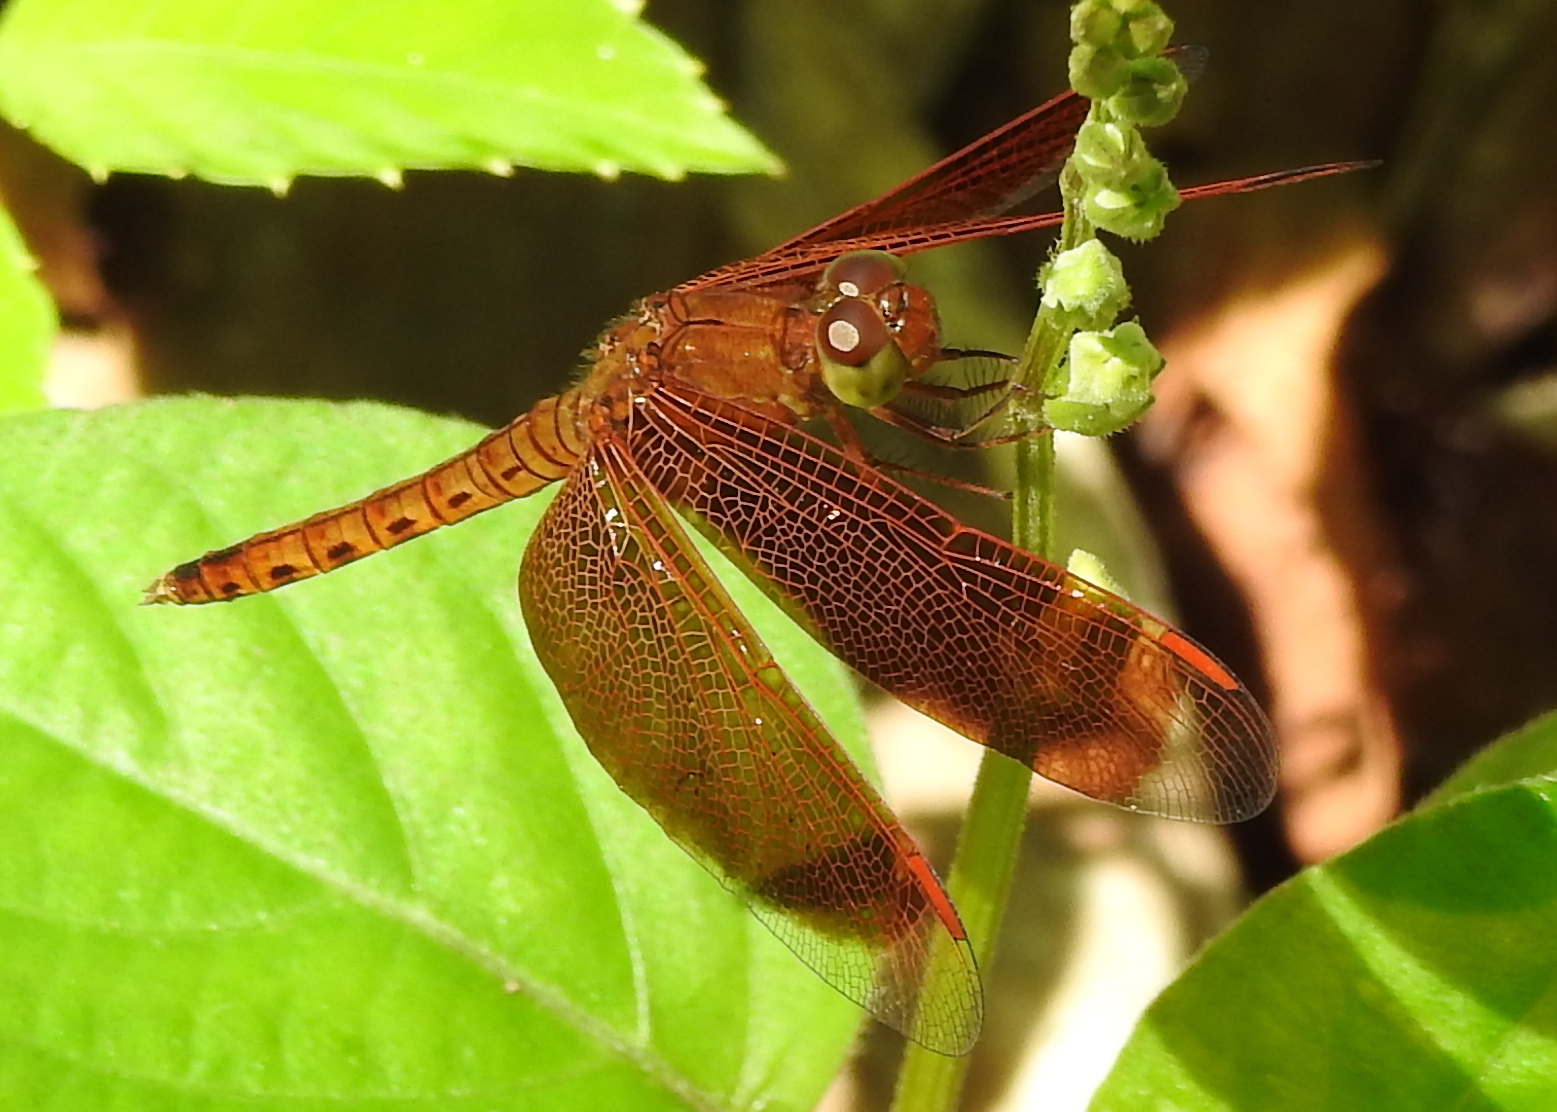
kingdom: Animalia
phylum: Arthropoda
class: Insecta
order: Odonata
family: Libellulidae
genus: Neurothemis
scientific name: Neurothemis fluctuans
